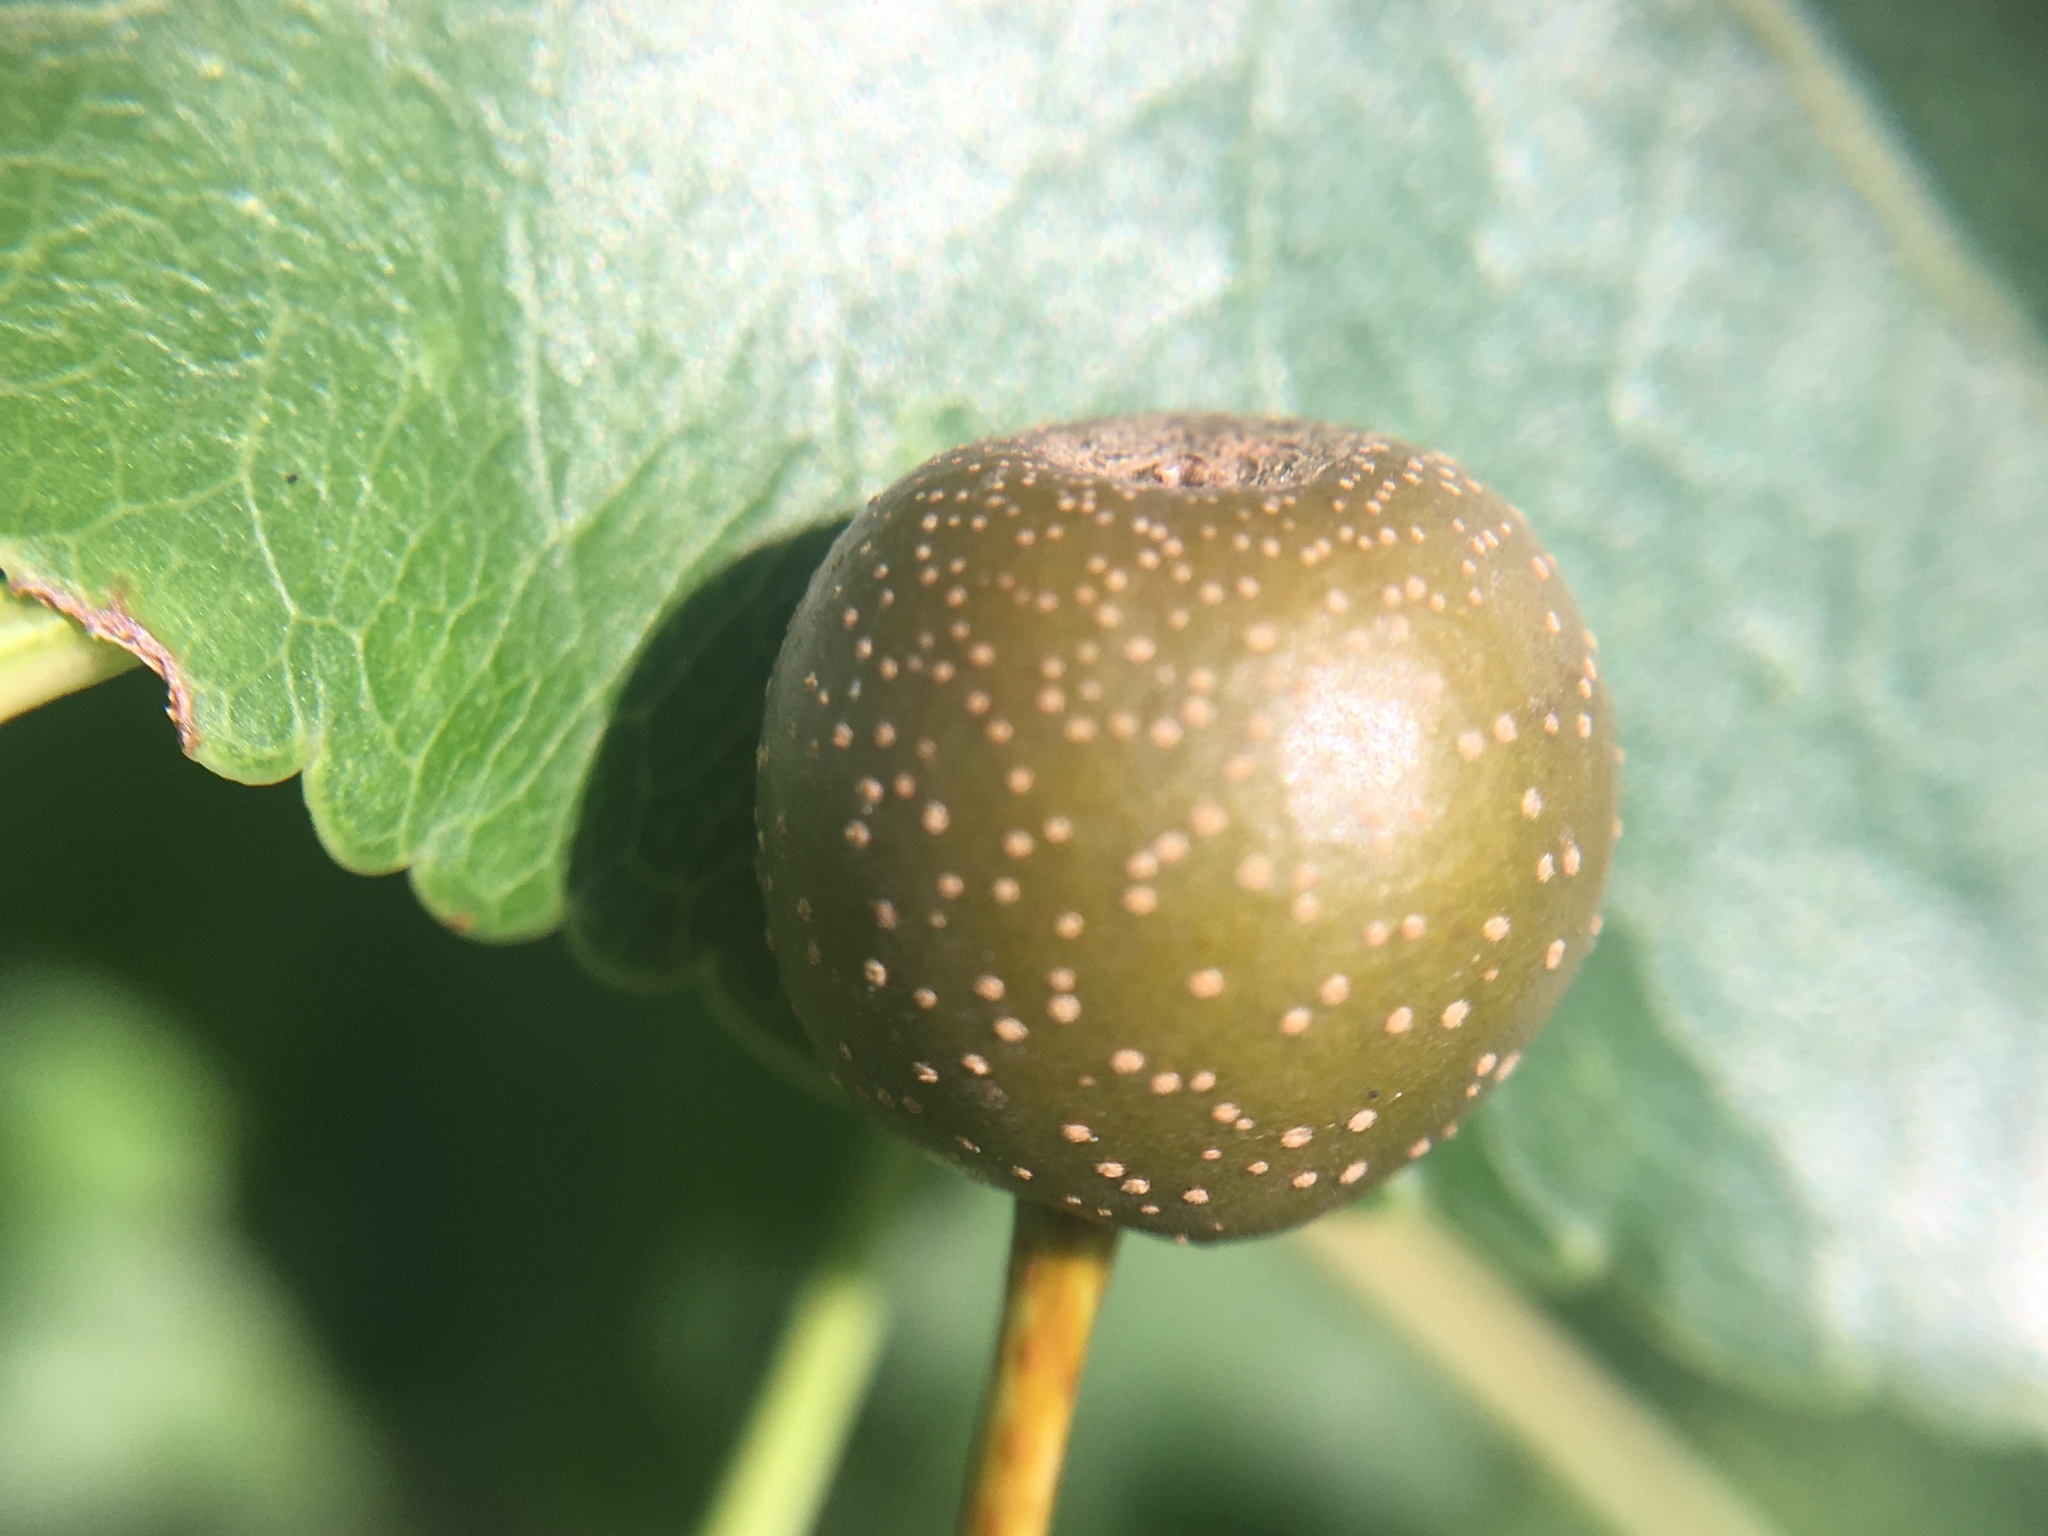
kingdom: Plantae
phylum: Tracheophyta
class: Magnoliopsida
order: Rosales
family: Rosaceae
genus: Pyrus
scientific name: Pyrus calleryana
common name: Callery pear
